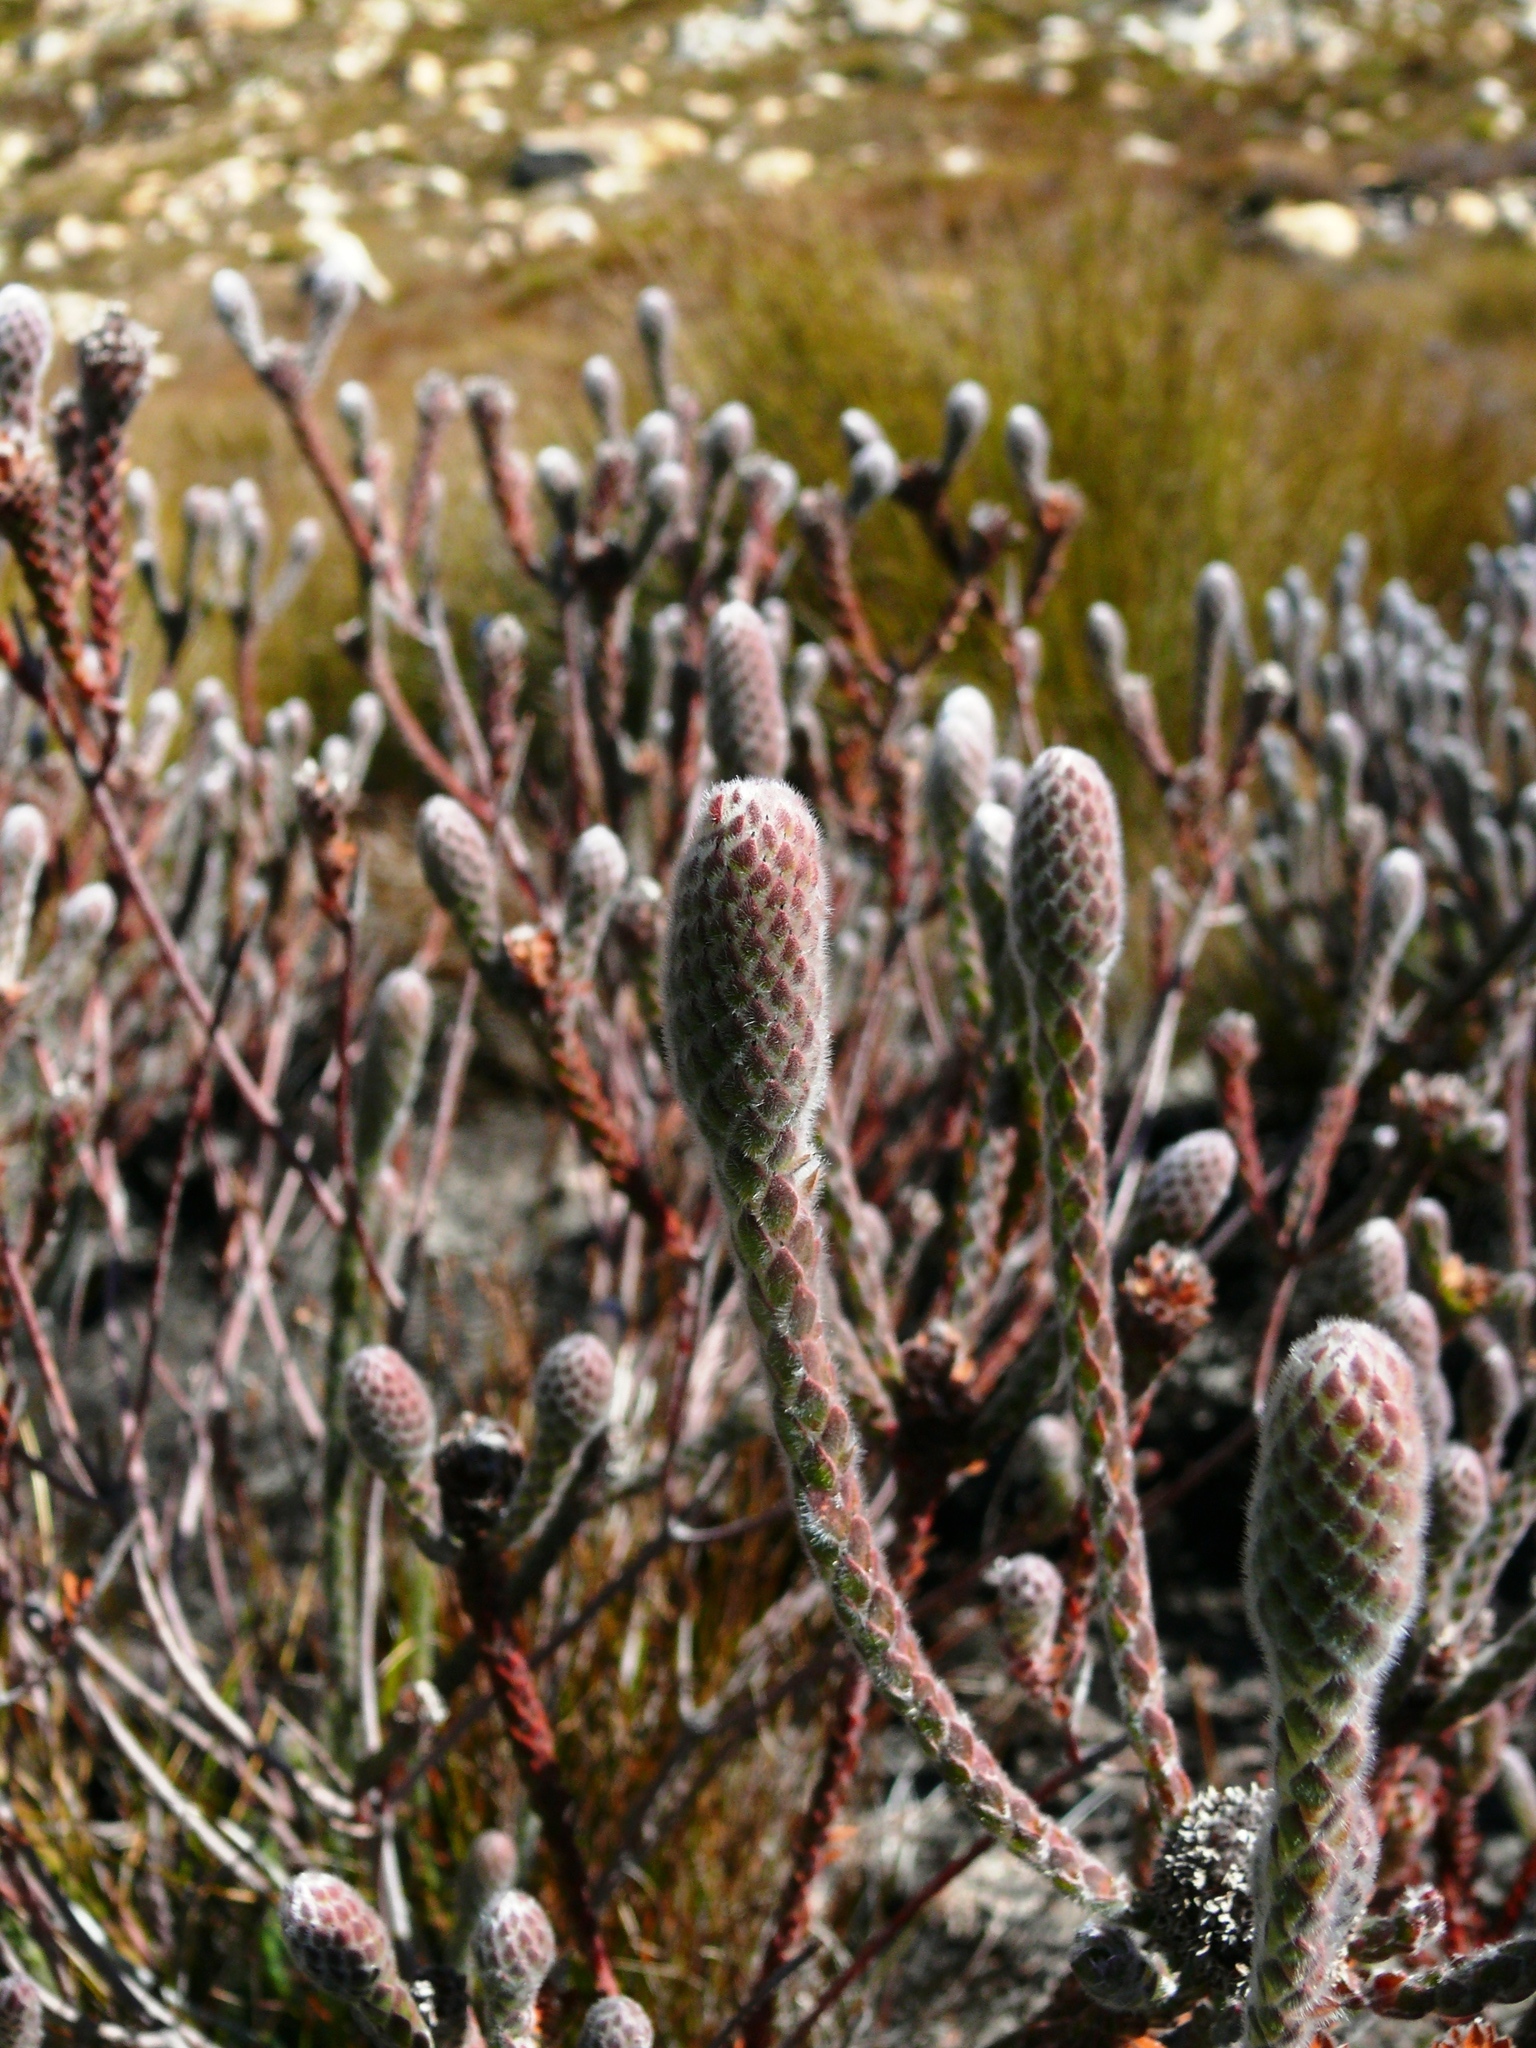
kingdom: Plantae
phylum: Tracheophyta
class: Magnoliopsida
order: Bruniales
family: Bruniaceae
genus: Brunia
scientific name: Brunia pentandra
